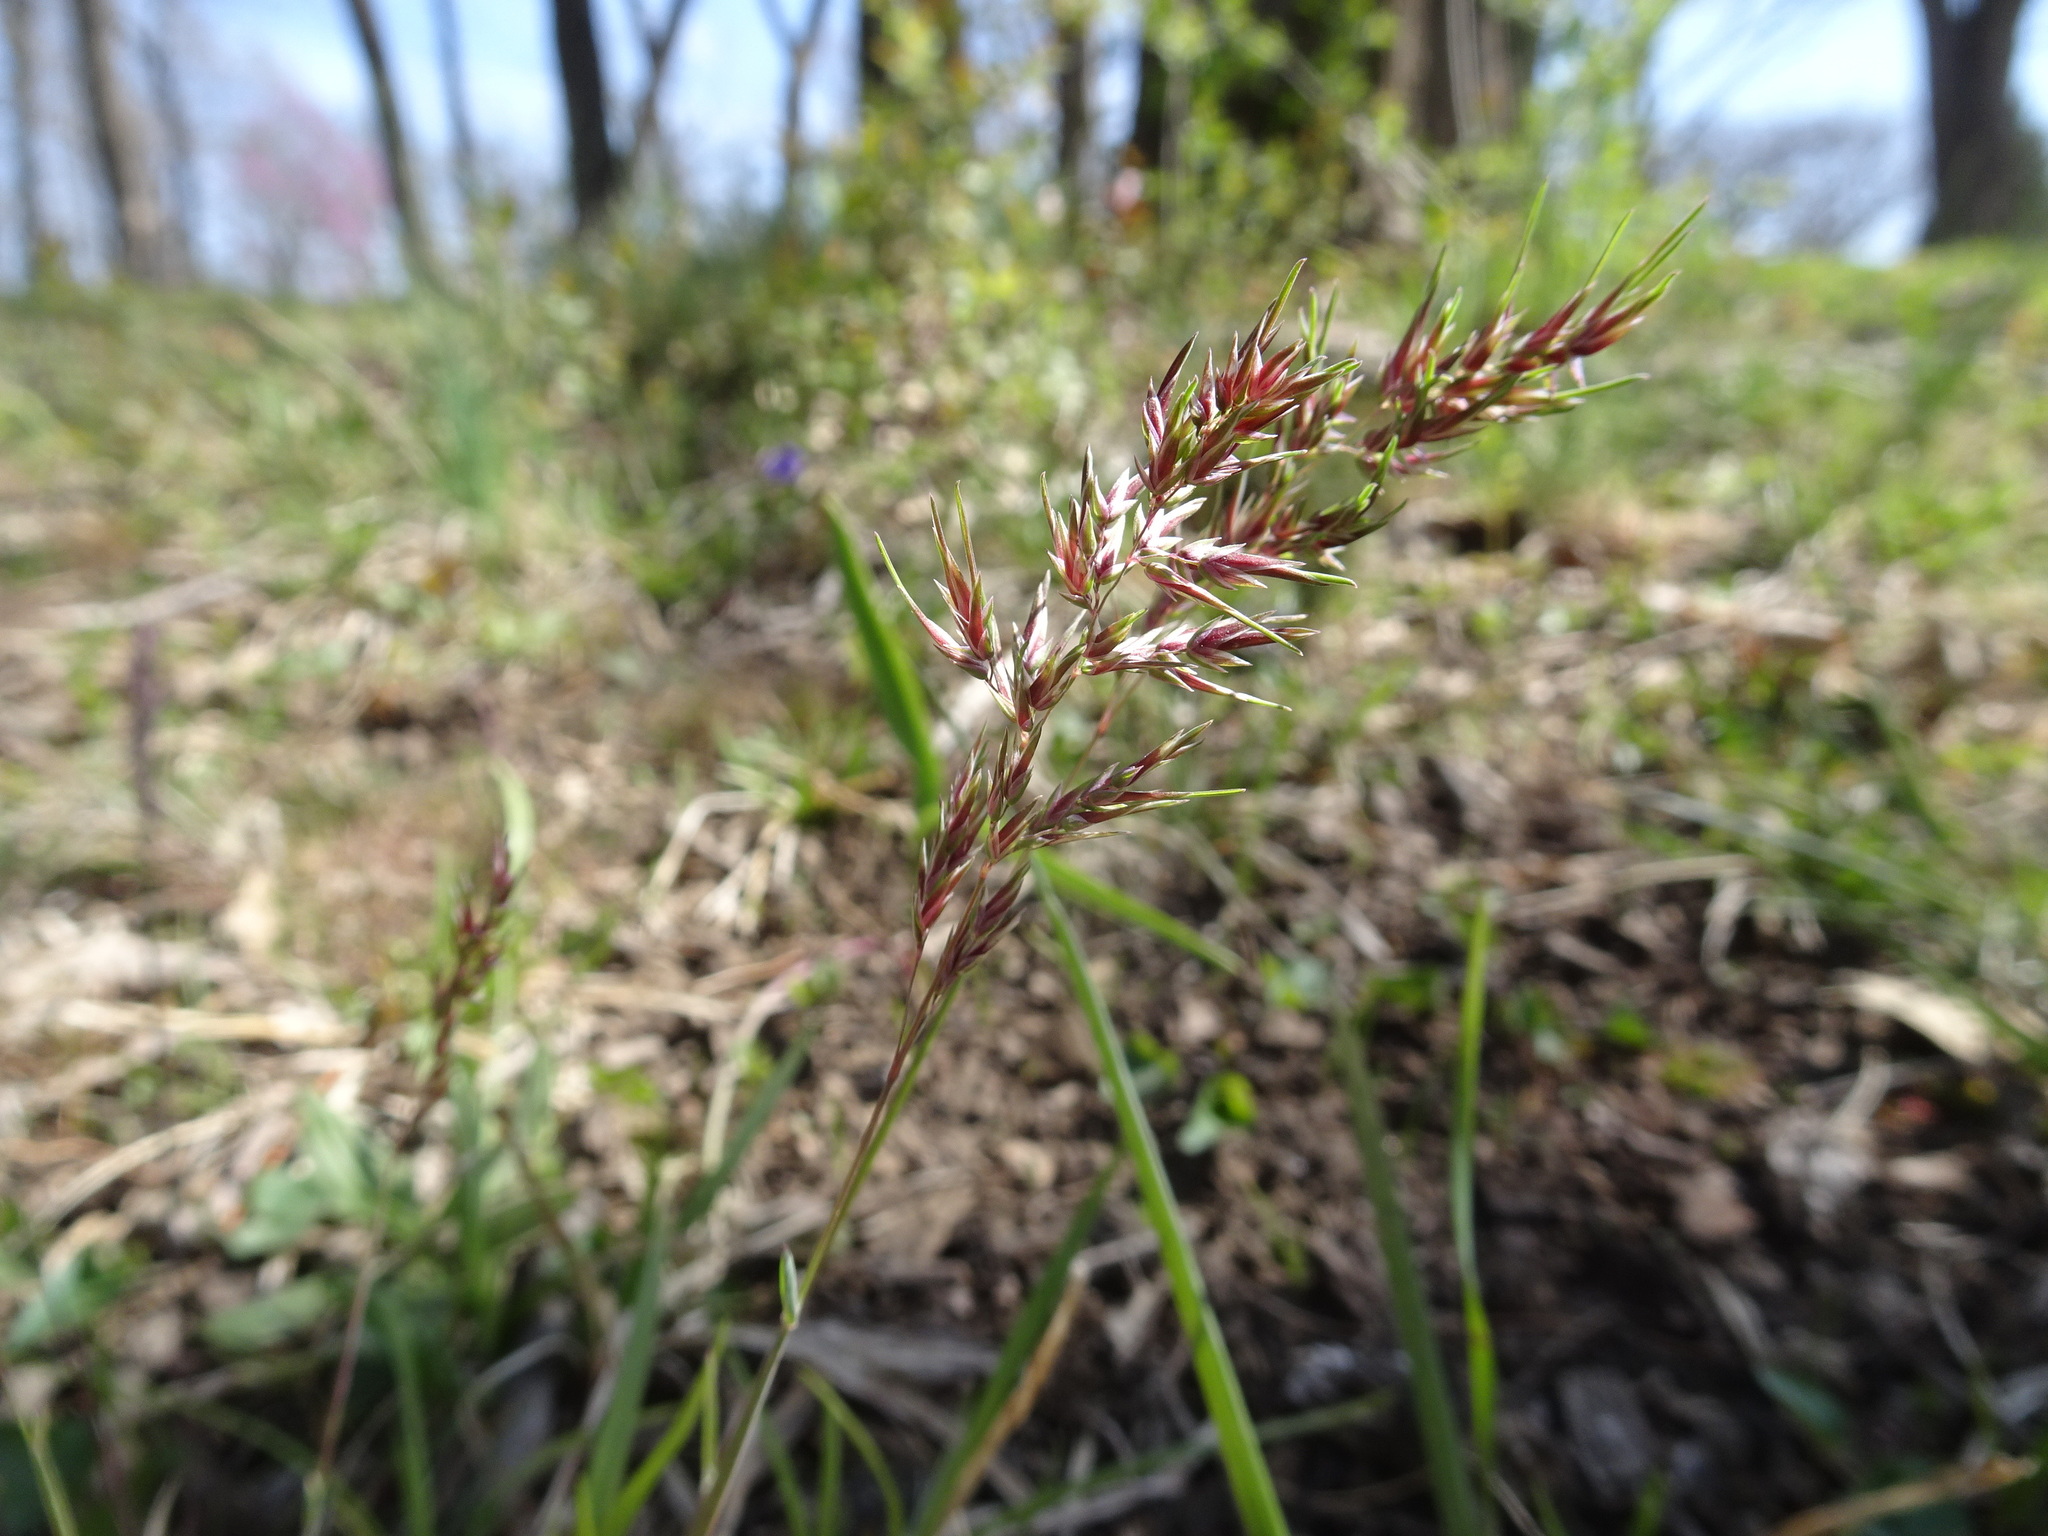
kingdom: Plantae
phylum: Tracheophyta
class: Liliopsida
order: Poales
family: Poaceae
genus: Poa
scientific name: Poa bulbosa
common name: Bulbous bluegrass
